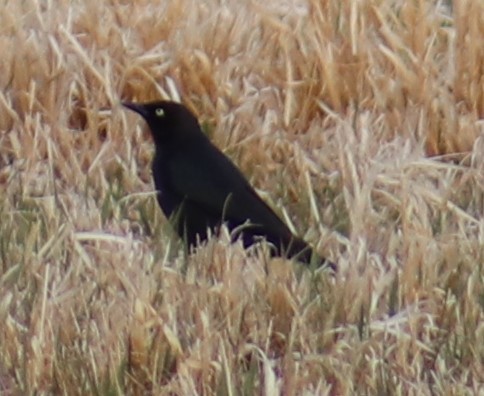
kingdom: Animalia
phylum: Chordata
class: Aves
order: Passeriformes
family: Icteridae
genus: Euphagus
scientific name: Euphagus cyanocephalus
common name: Brewer's blackbird
